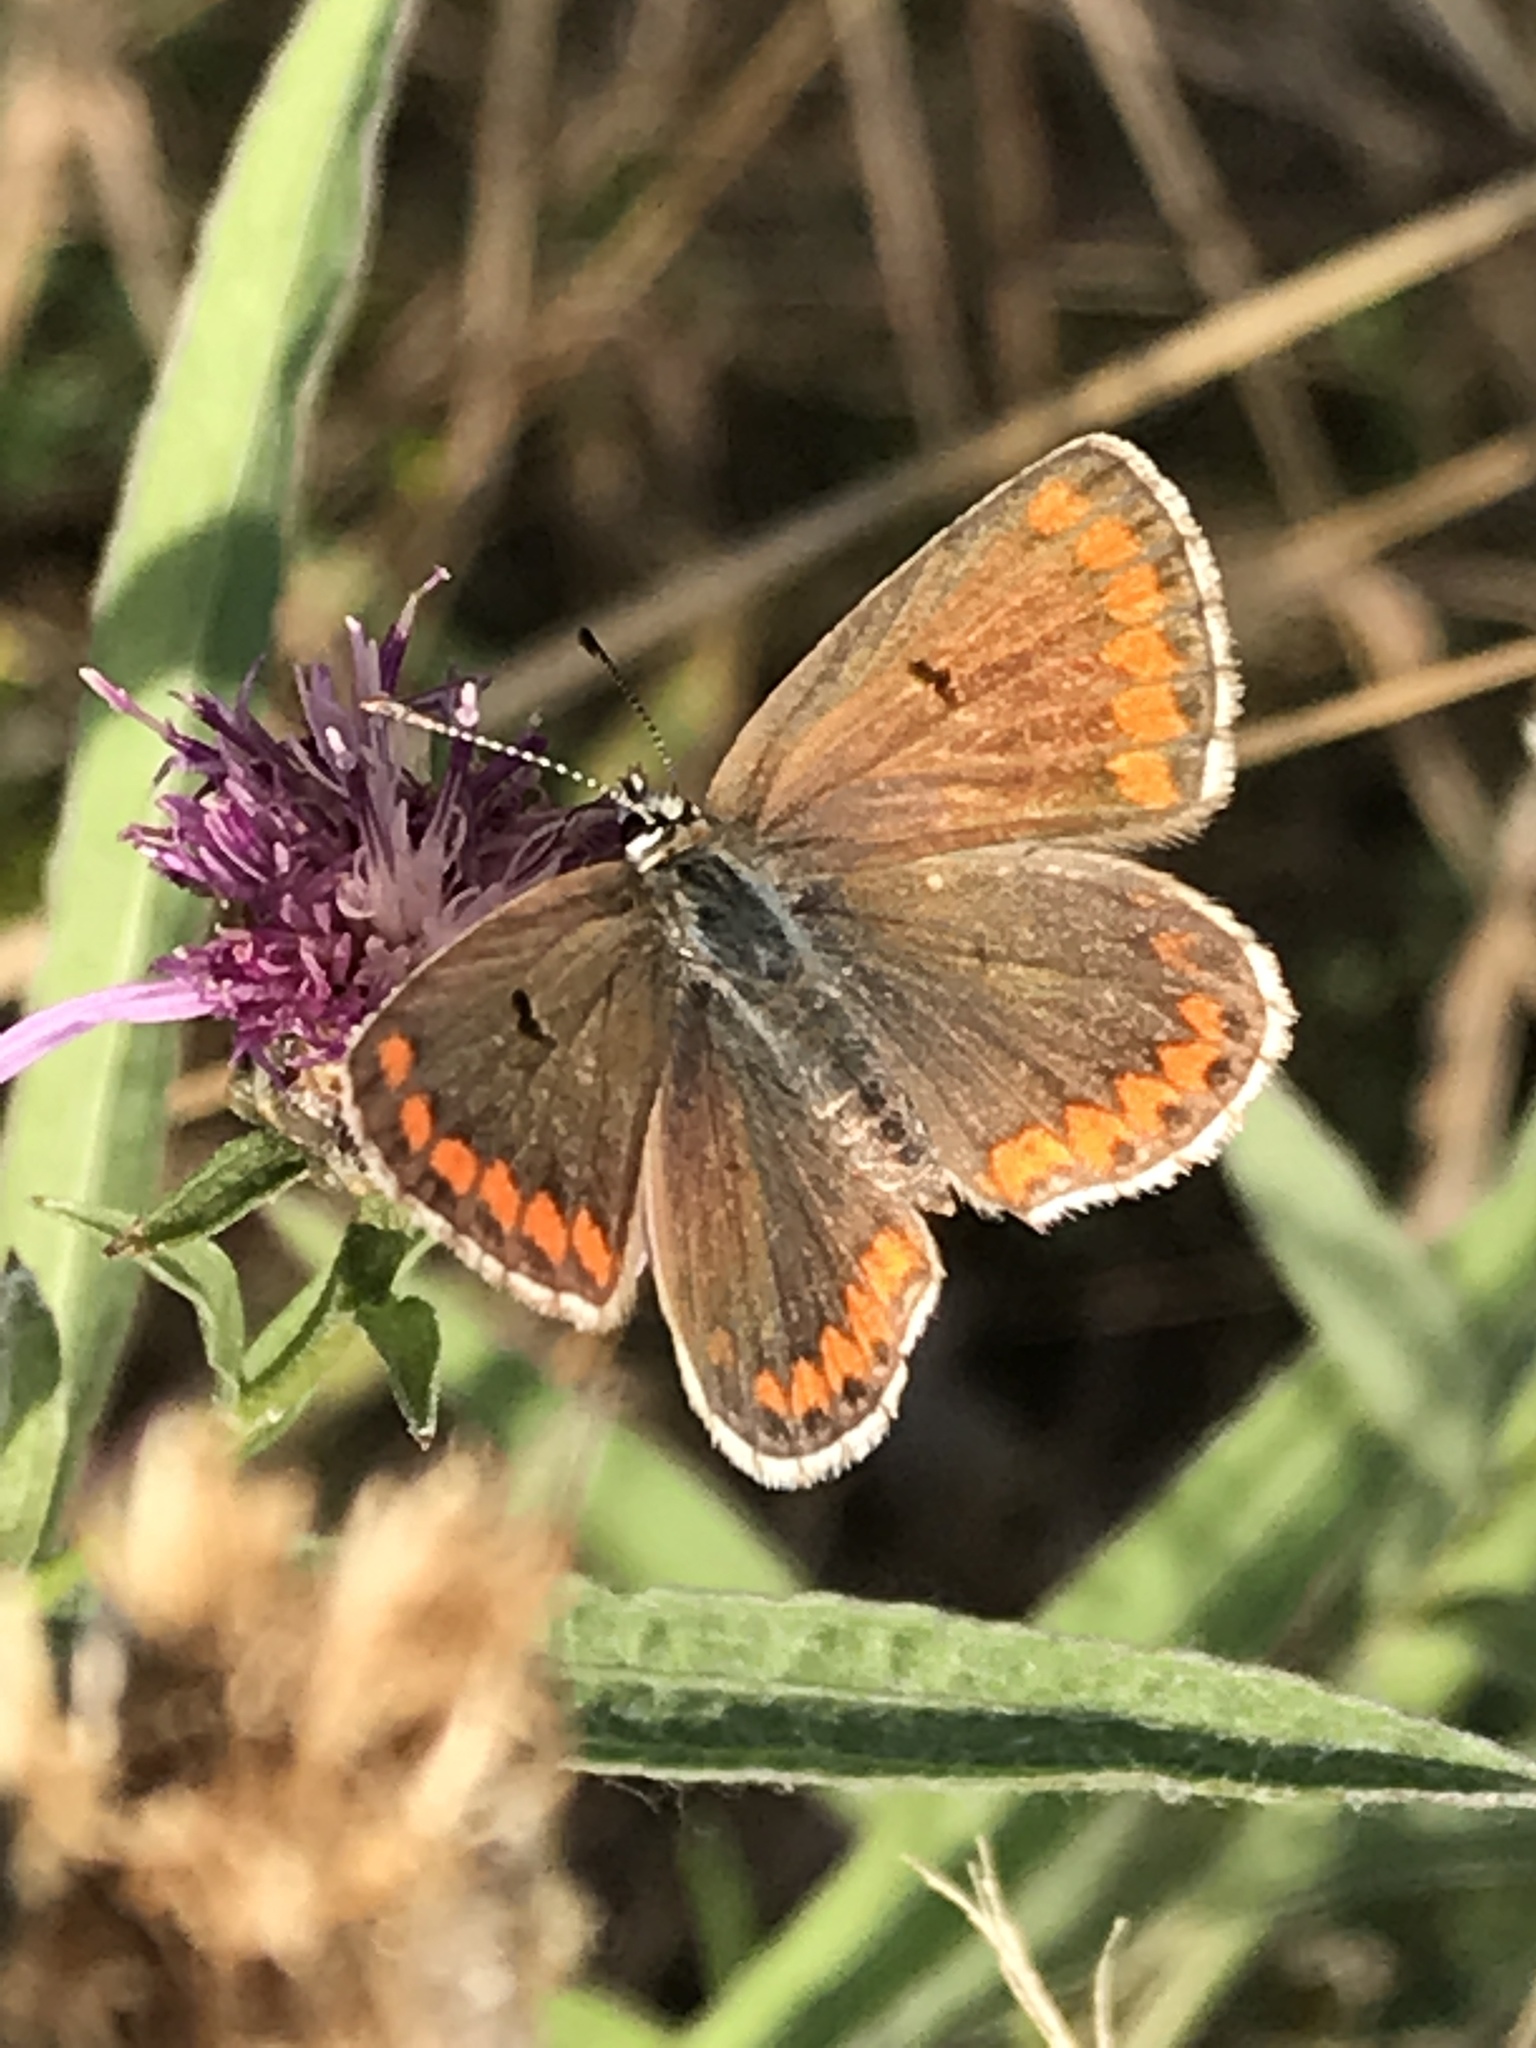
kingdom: Animalia
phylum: Arthropoda
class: Insecta
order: Lepidoptera
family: Lycaenidae
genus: Aricia
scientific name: Aricia agestis
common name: Brown argus
